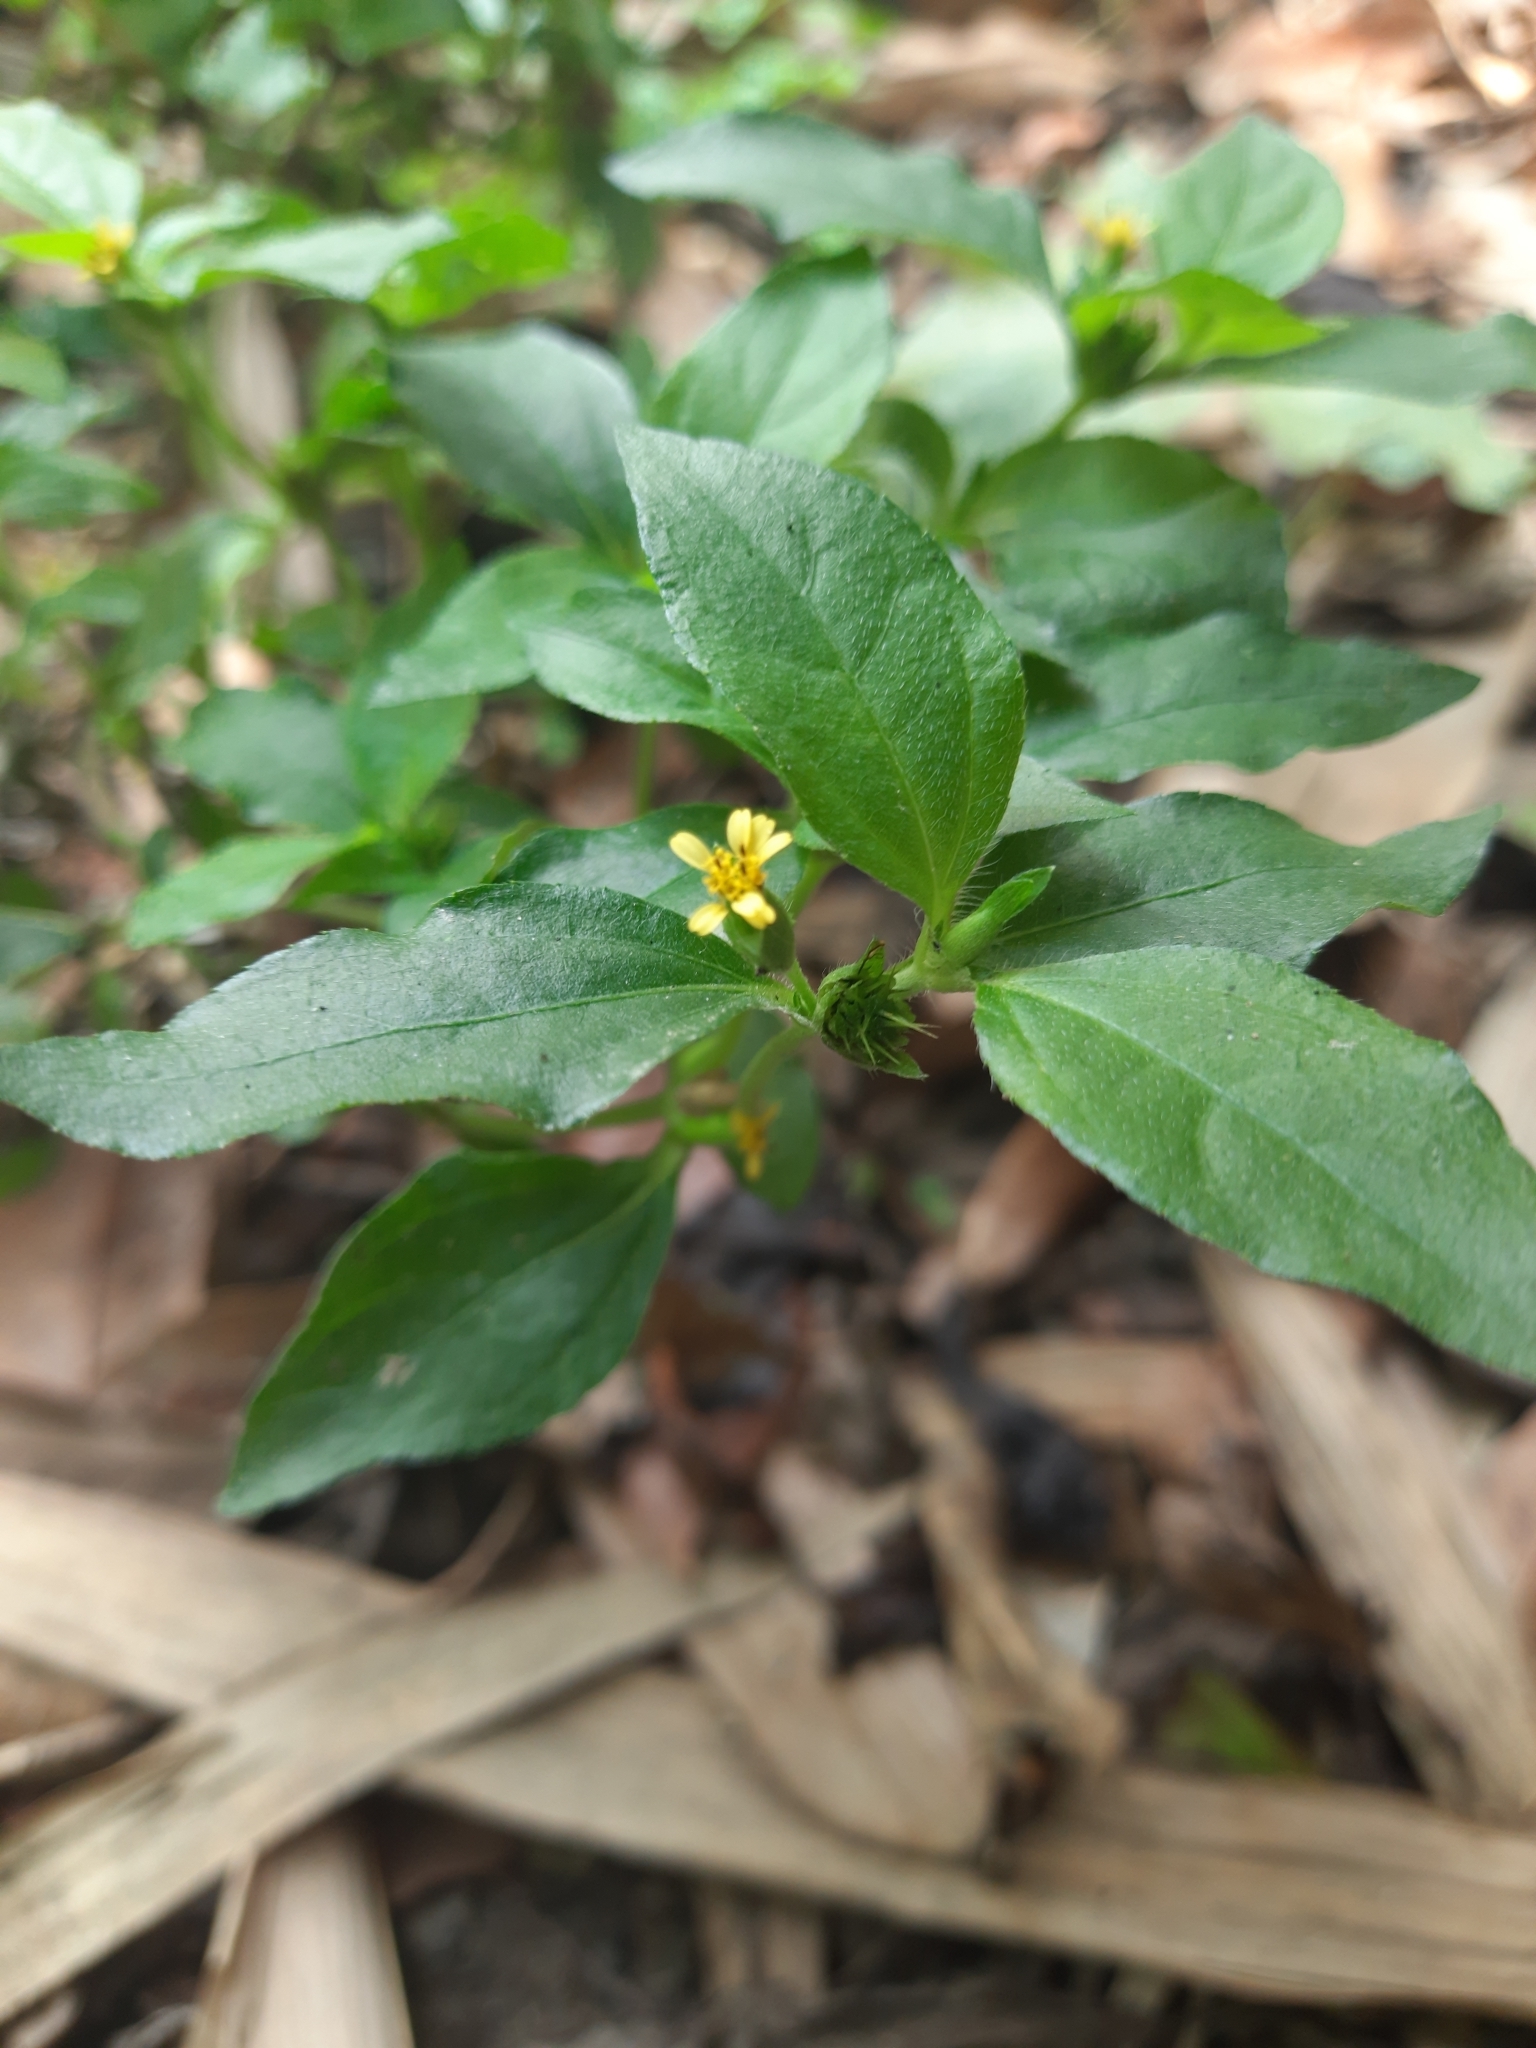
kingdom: Plantae
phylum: Tracheophyta
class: Magnoliopsida
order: Asterales
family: Asteraceae
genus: Synedrella
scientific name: Synedrella nodiflora
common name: Nodeweed
